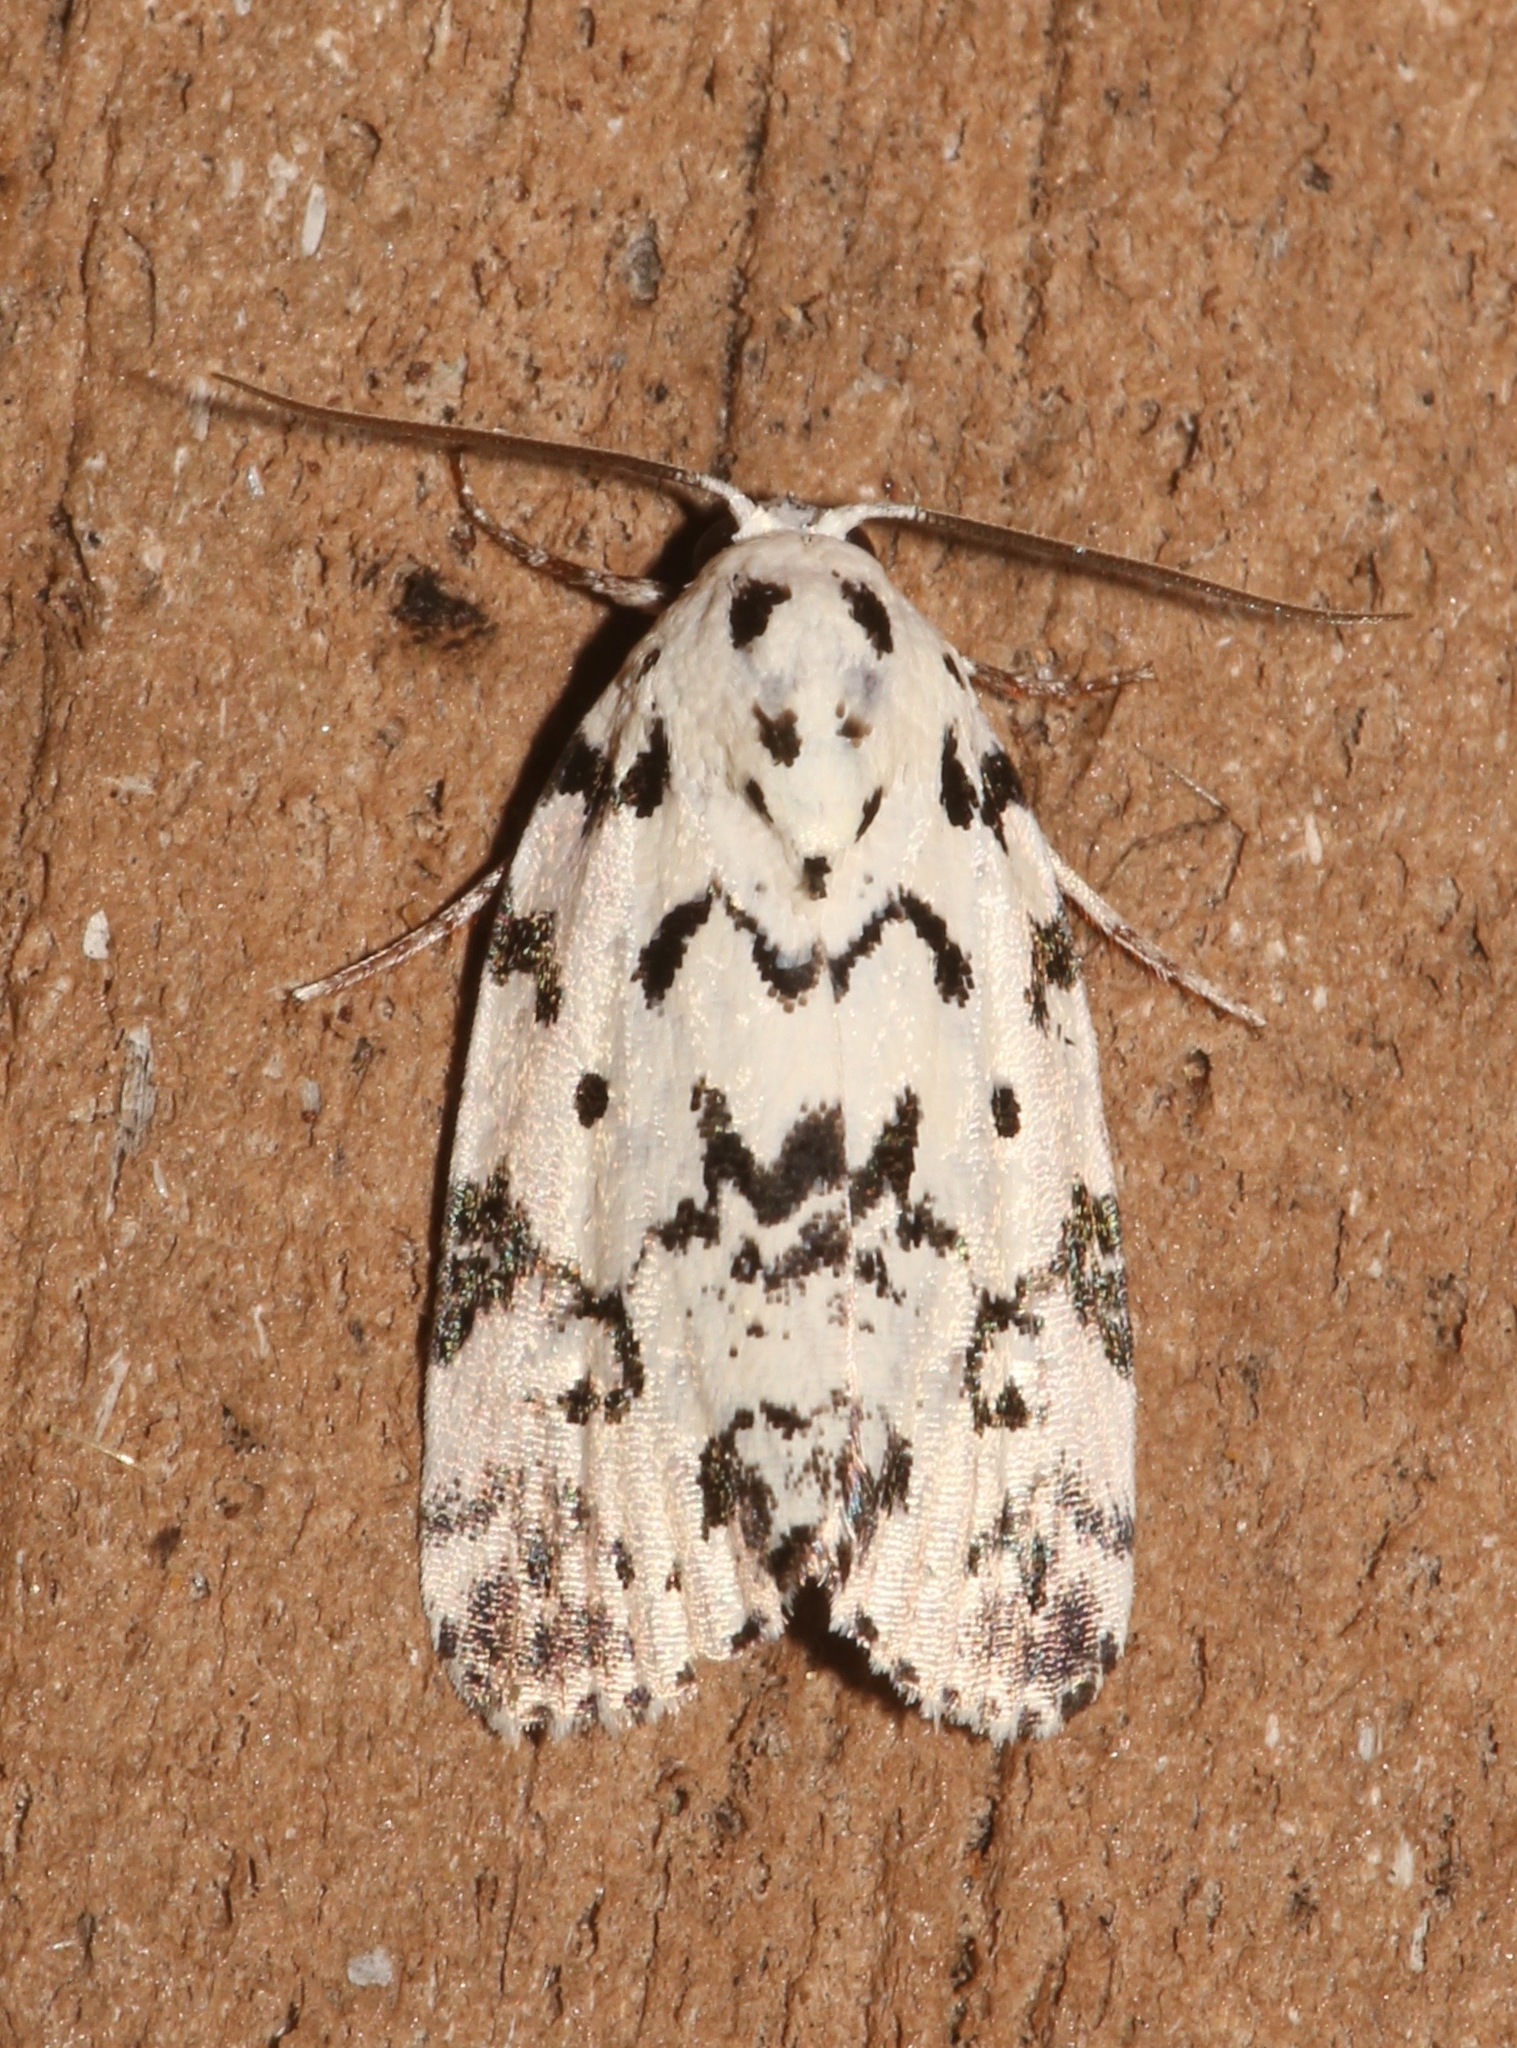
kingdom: Animalia
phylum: Arthropoda
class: Insecta
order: Lepidoptera
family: Noctuidae
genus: Polygrammate
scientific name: Polygrammate hebraeicum
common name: Hebrew moth
